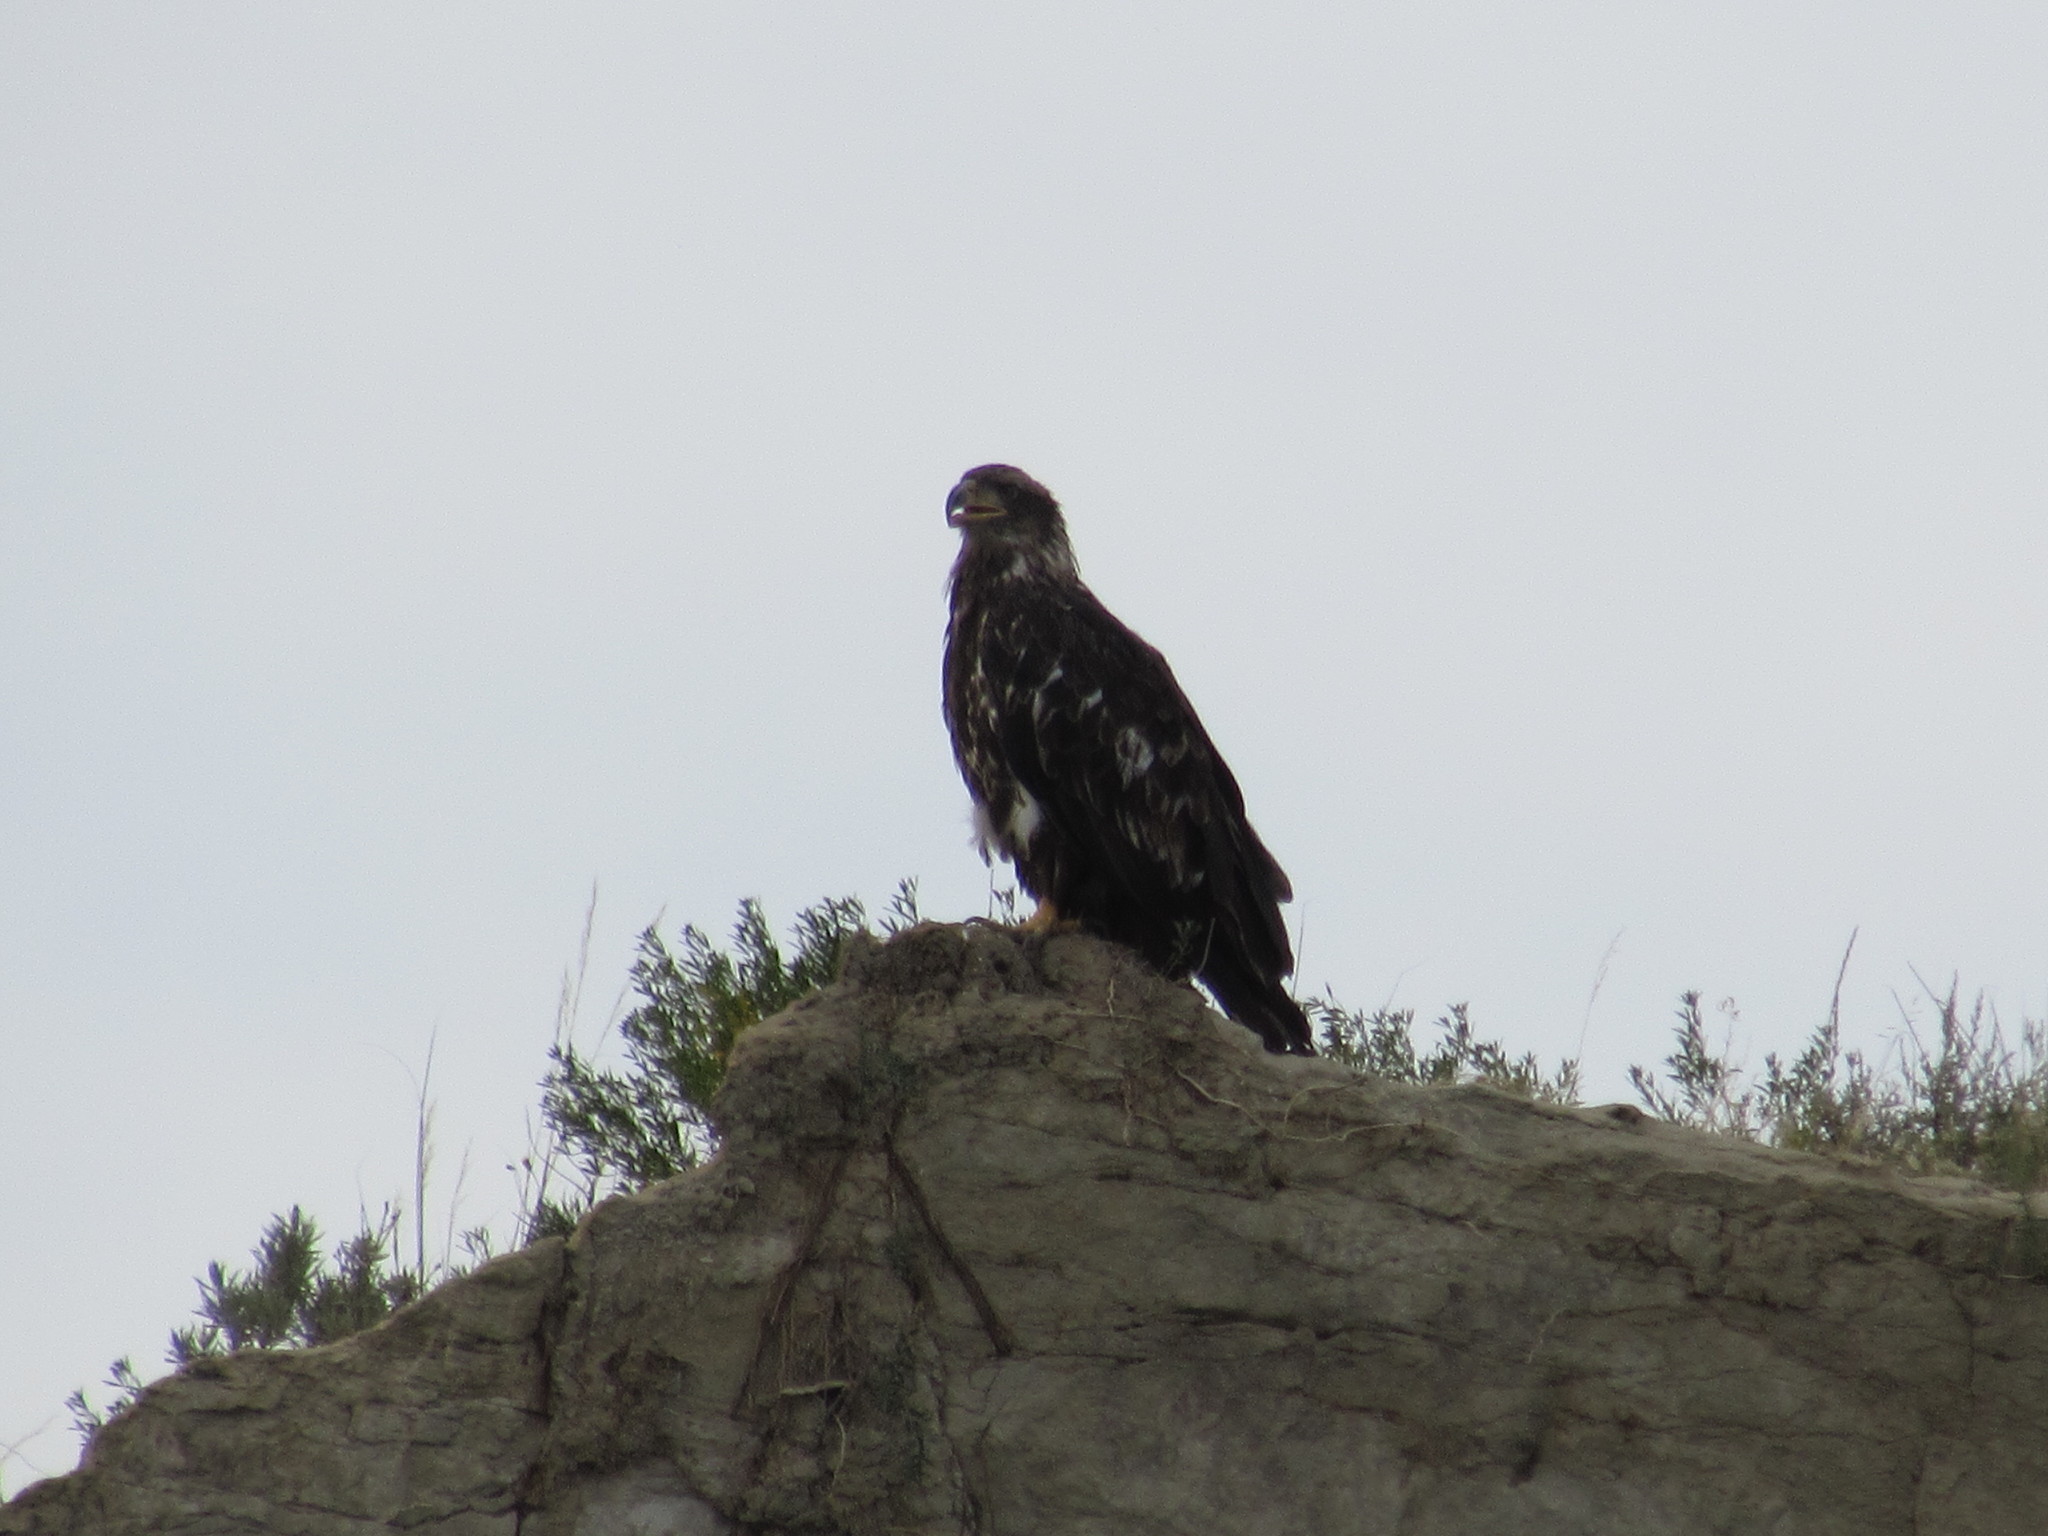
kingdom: Animalia
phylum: Chordata
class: Aves
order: Accipitriformes
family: Accipitridae
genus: Haliaeetus
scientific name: Haliaeetus leucocephalus
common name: Bald eagle
